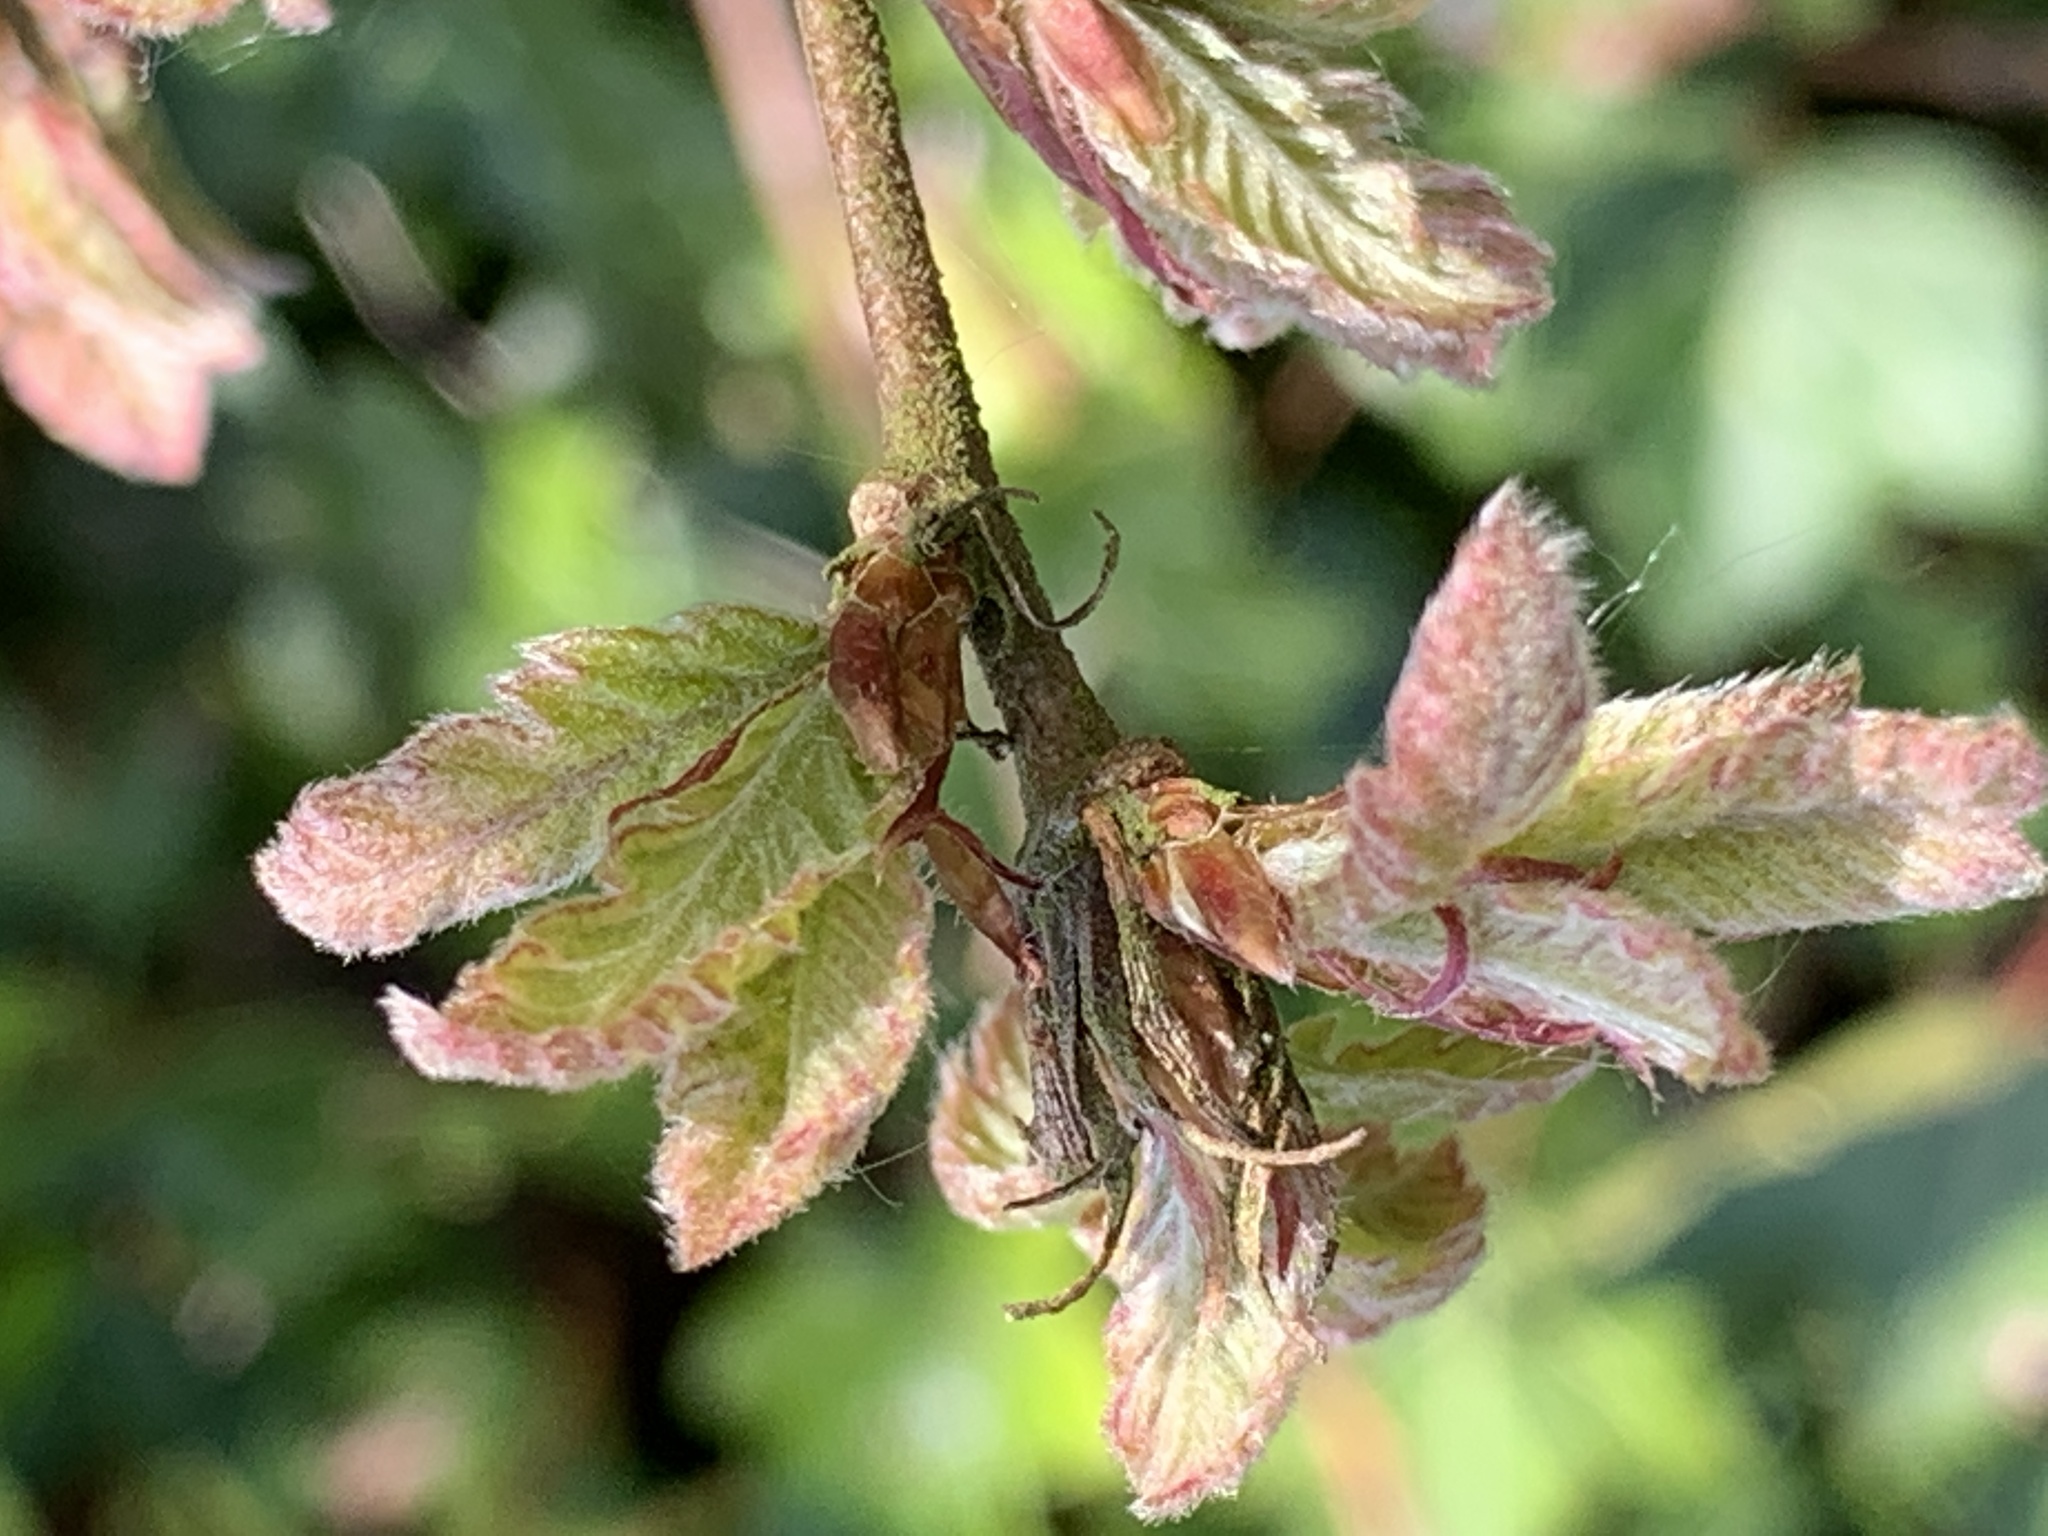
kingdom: Plantae
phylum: Tracheophyta
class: Magnoliopsida
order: Fagales
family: Fagaceae
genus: Quercus
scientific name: Quercus cerris
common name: Turkey oak
